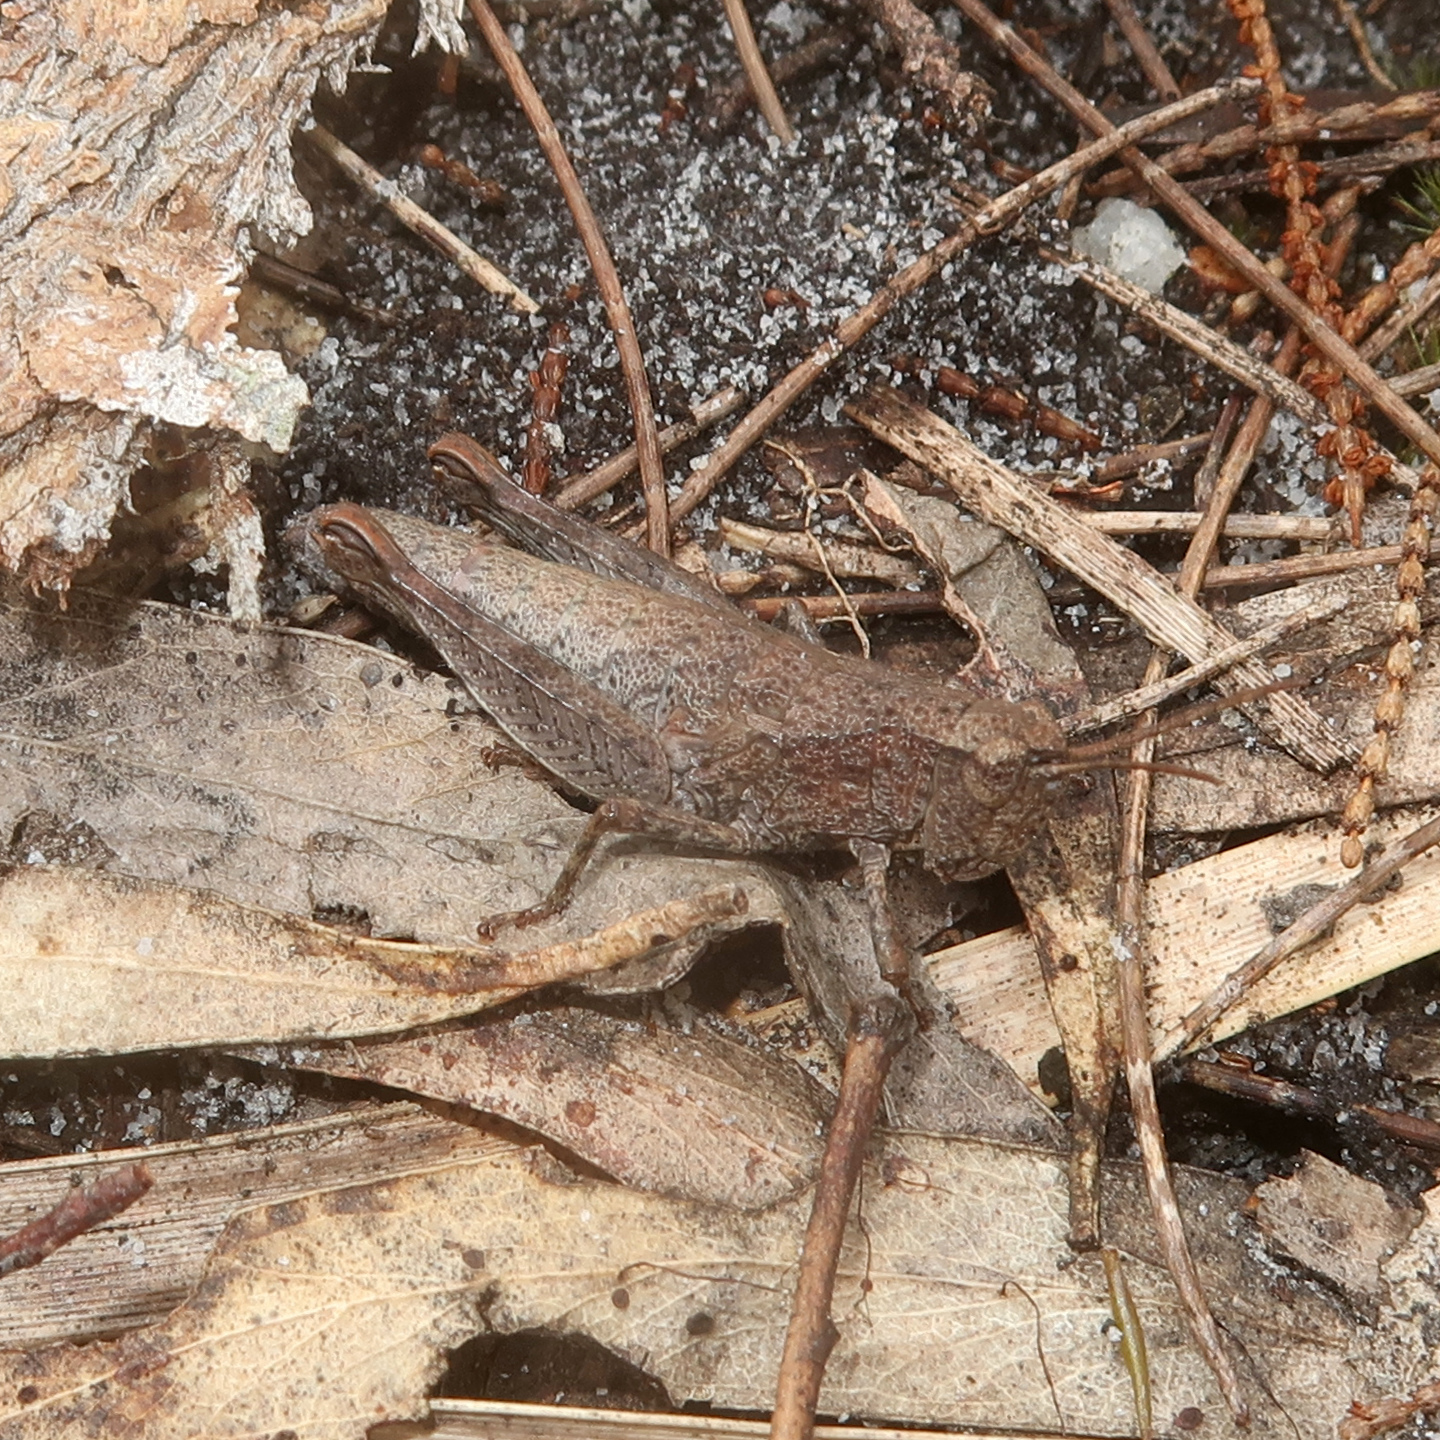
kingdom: Animalia
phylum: Arthropoda
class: Insecta
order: Orthoptera
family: Acrididae
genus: Tasmaniacris
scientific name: Tasmaniacris tasmaniensis
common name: Tasmanian grasshopper
